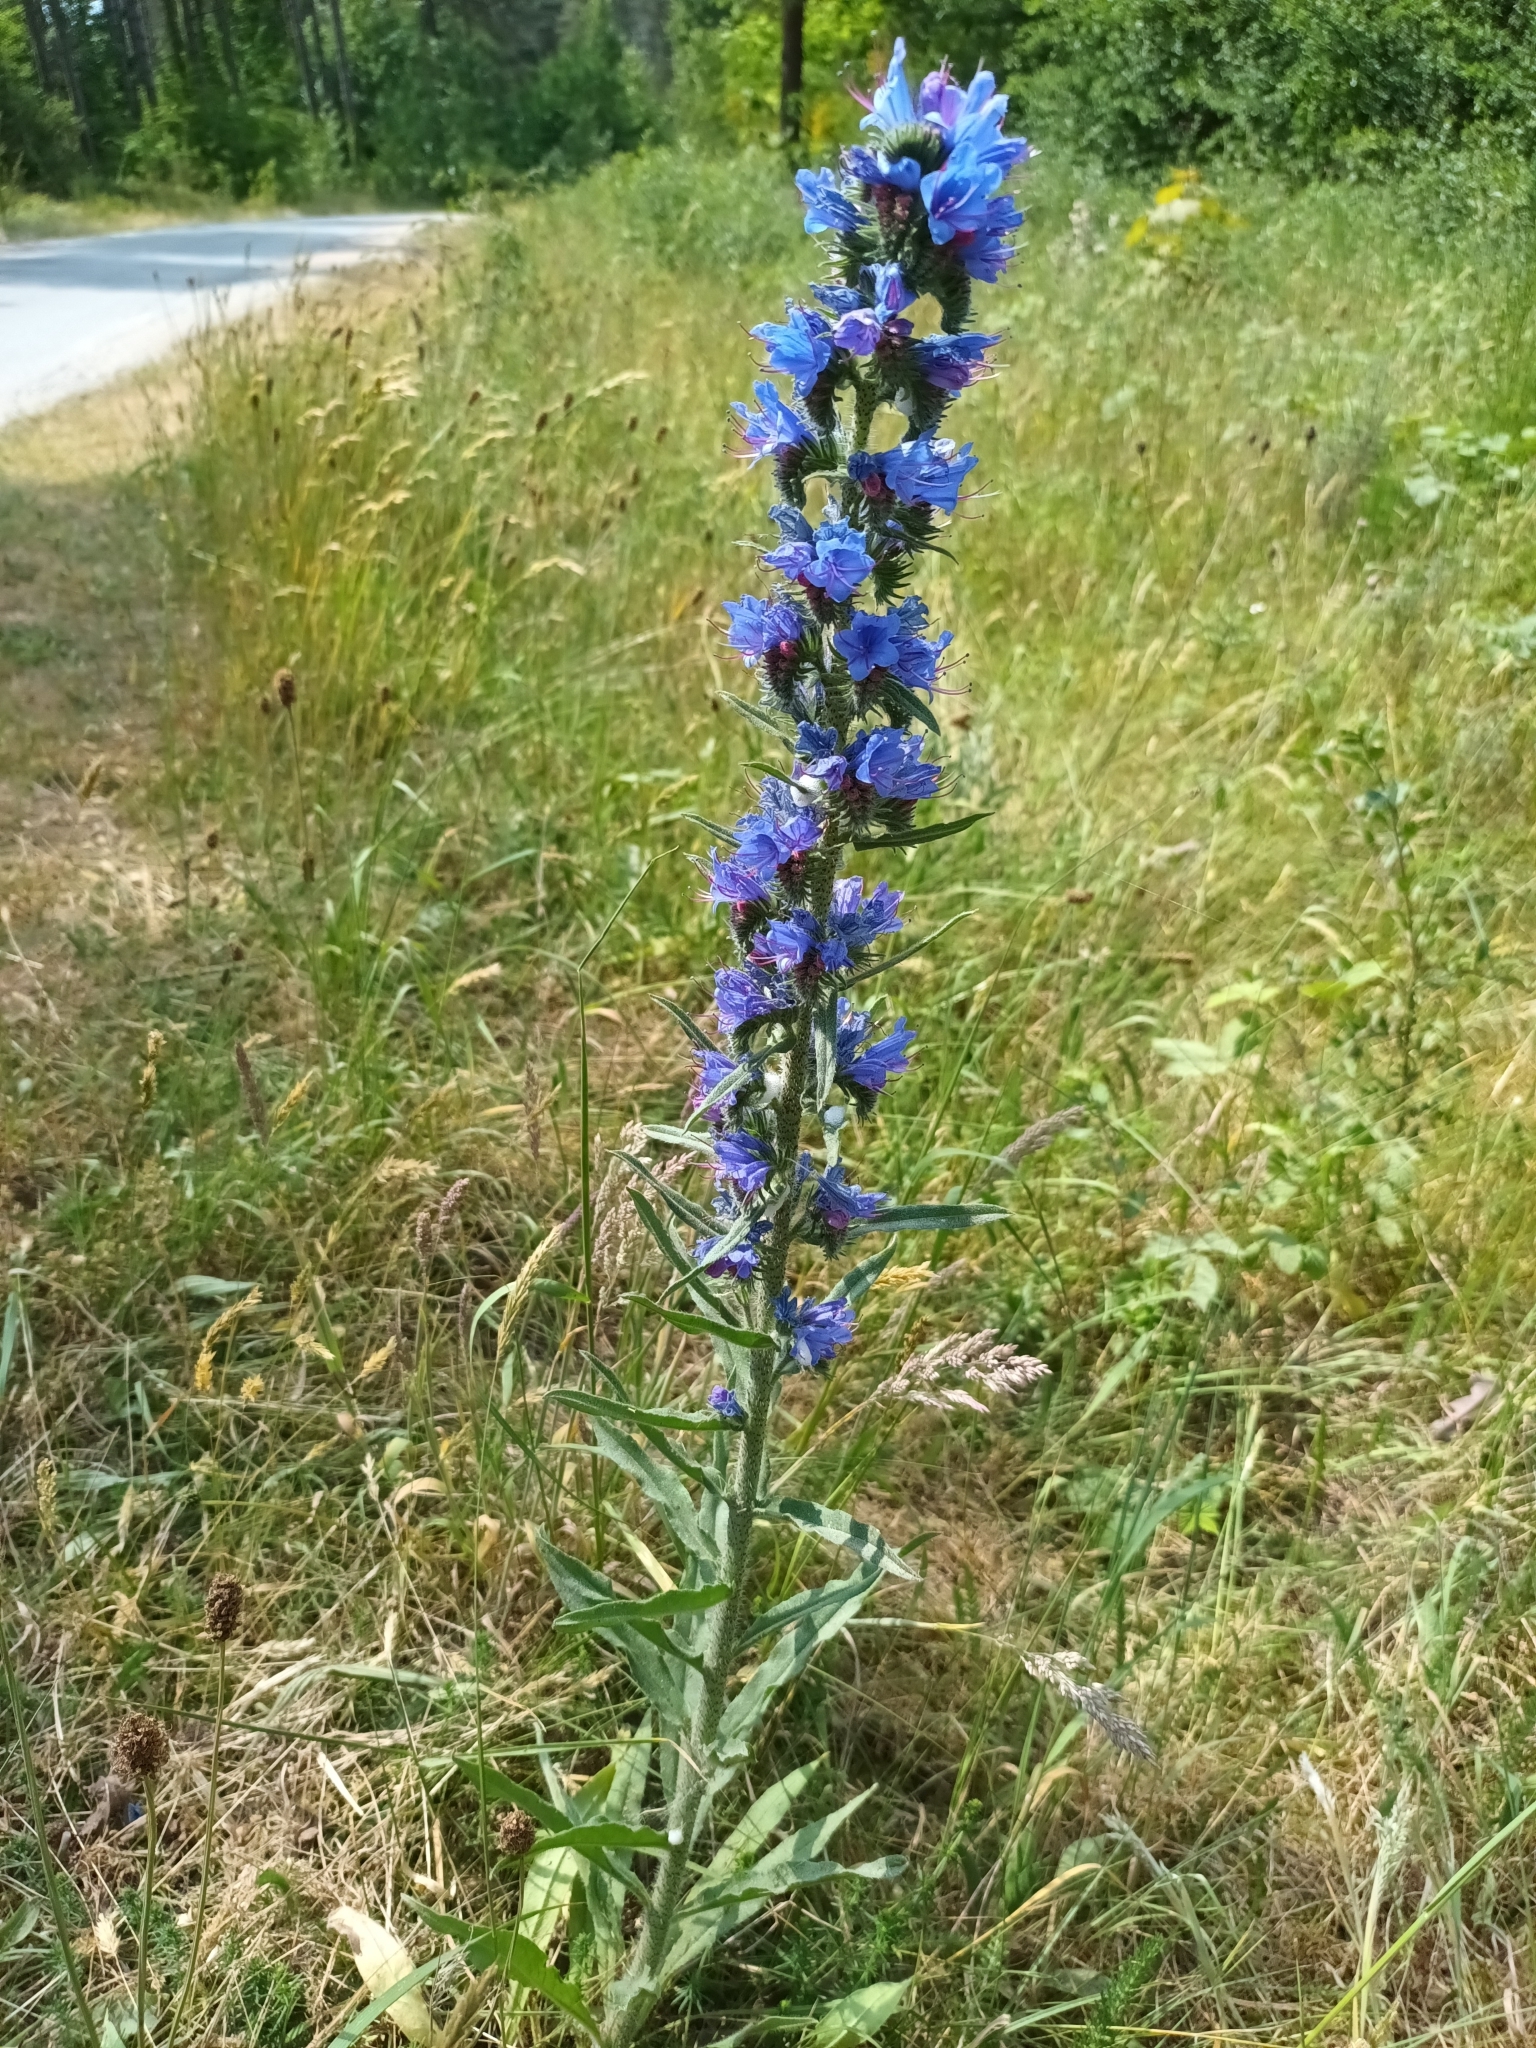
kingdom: Plantae
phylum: Tracheophyta
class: Magnoliopsida
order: Boraginales
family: Boraginaceae
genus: Echium
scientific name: Echium vulgare
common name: Common viper's bugloss
